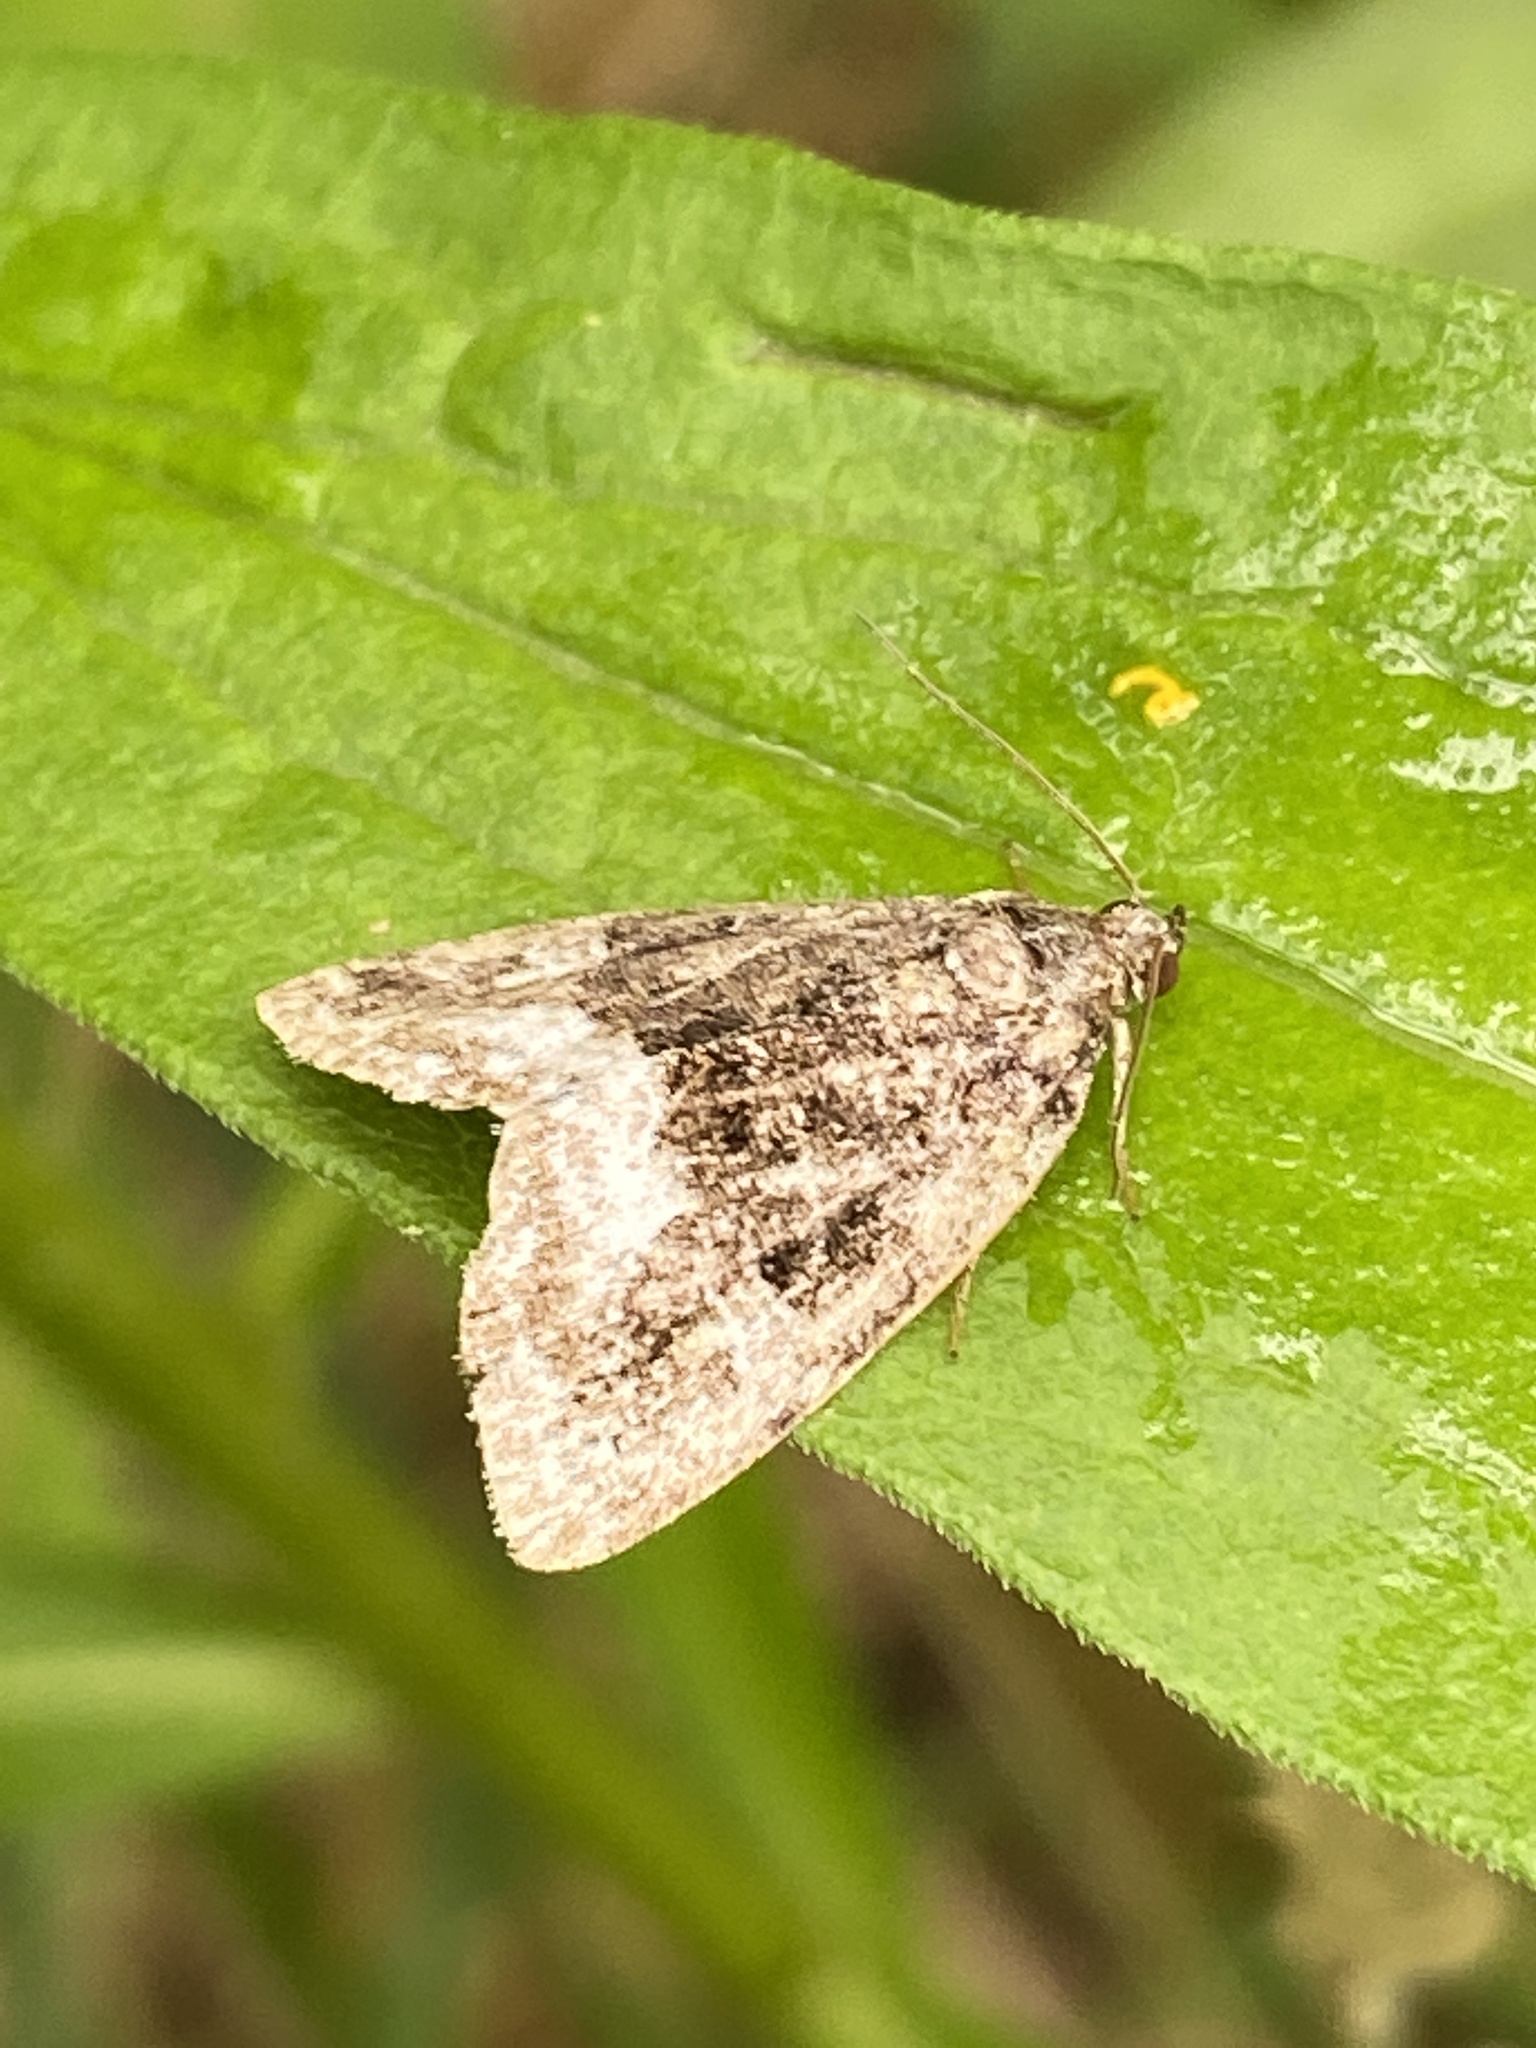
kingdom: Animalia
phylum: Arthropoda
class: Insecta
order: Lepidoptera
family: Noctuidae
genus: Deltote
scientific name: Deltote pygarga
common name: Marbled white spot
